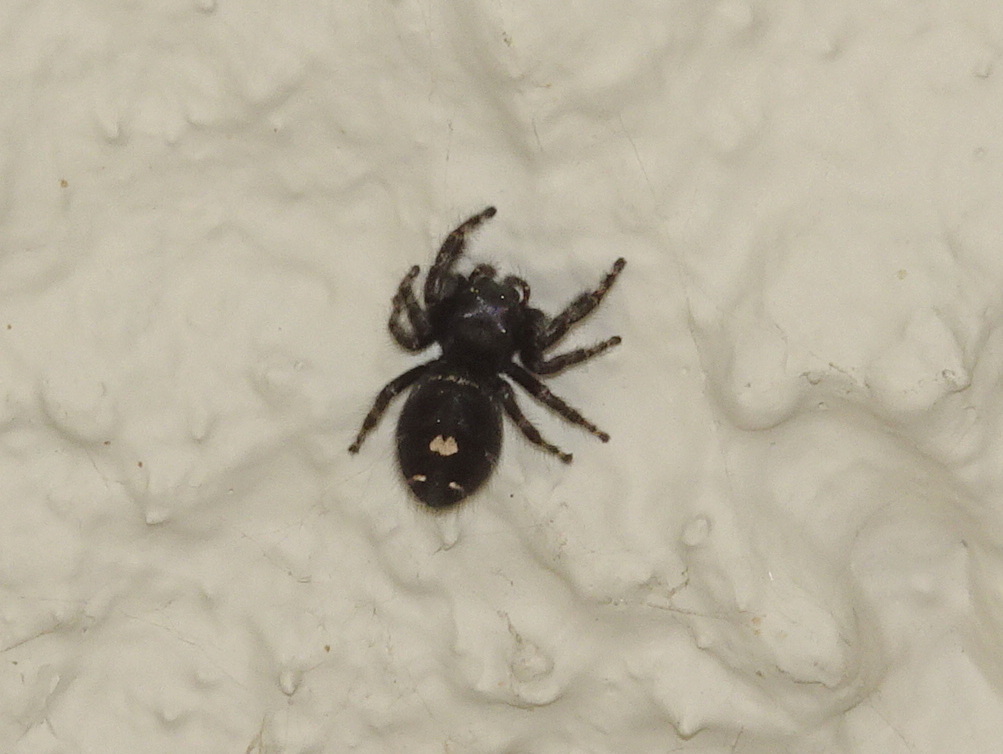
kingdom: Animalia
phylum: Arthropoda
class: Arachnida
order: Araneae
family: Salticidae
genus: Phidippus
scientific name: Phidippus audax
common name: Bold jumper
